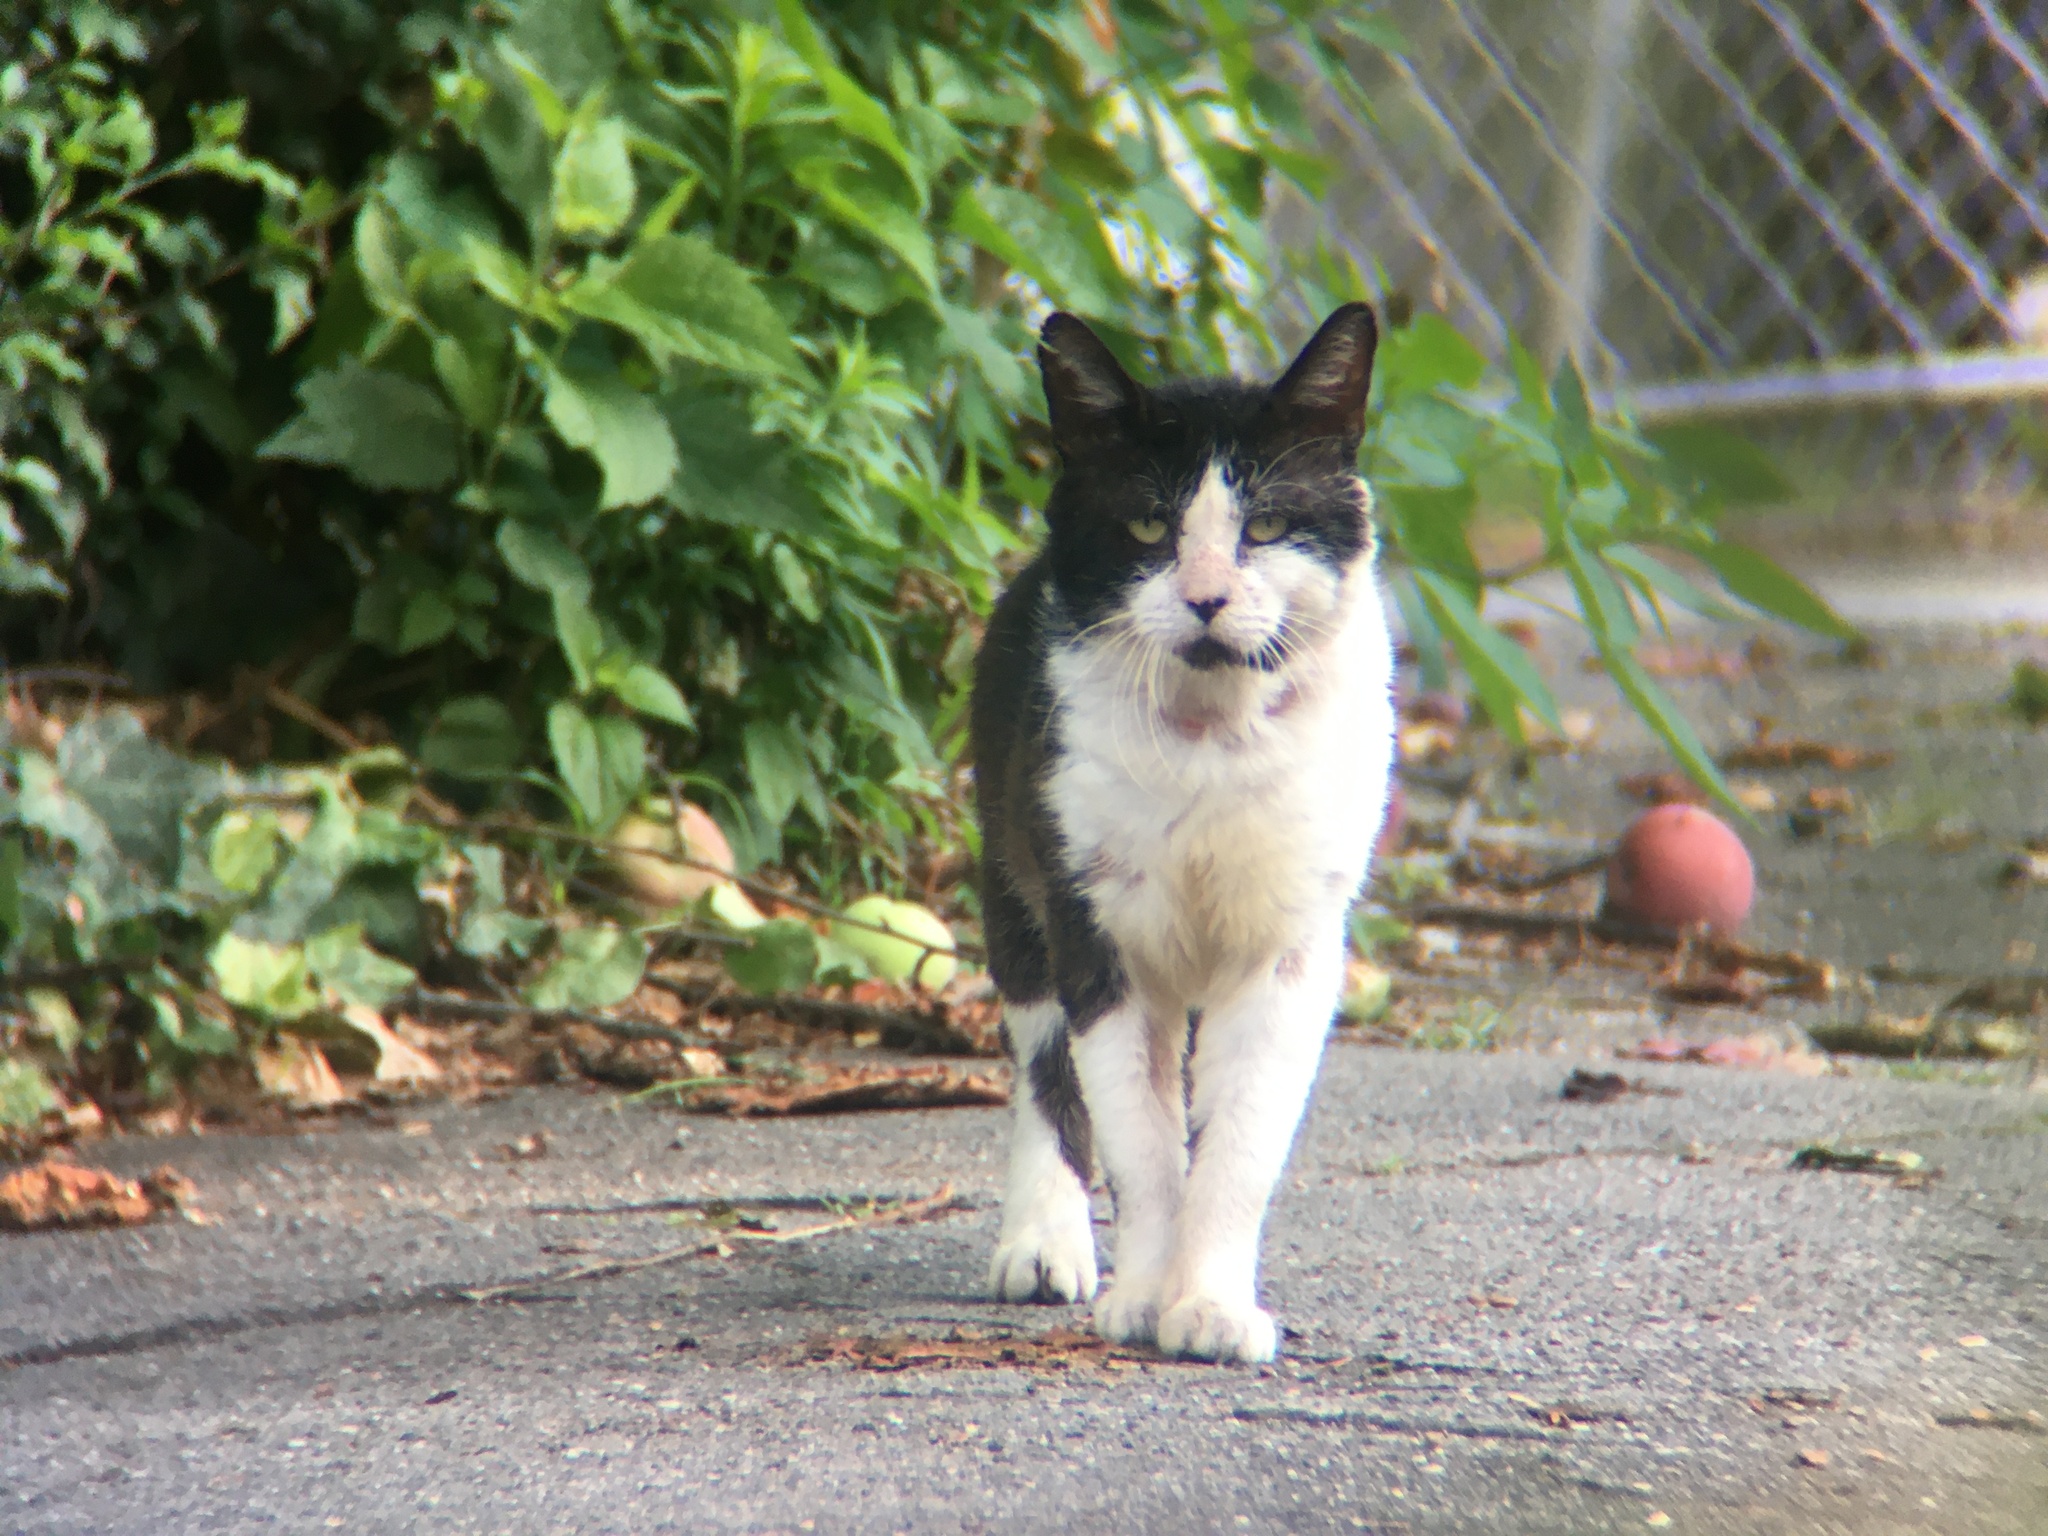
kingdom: Animalia
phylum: Chordata
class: Mammalia
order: Carnivora
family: Felidae
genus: Felis
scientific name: Felis catus
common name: Domestic cat
